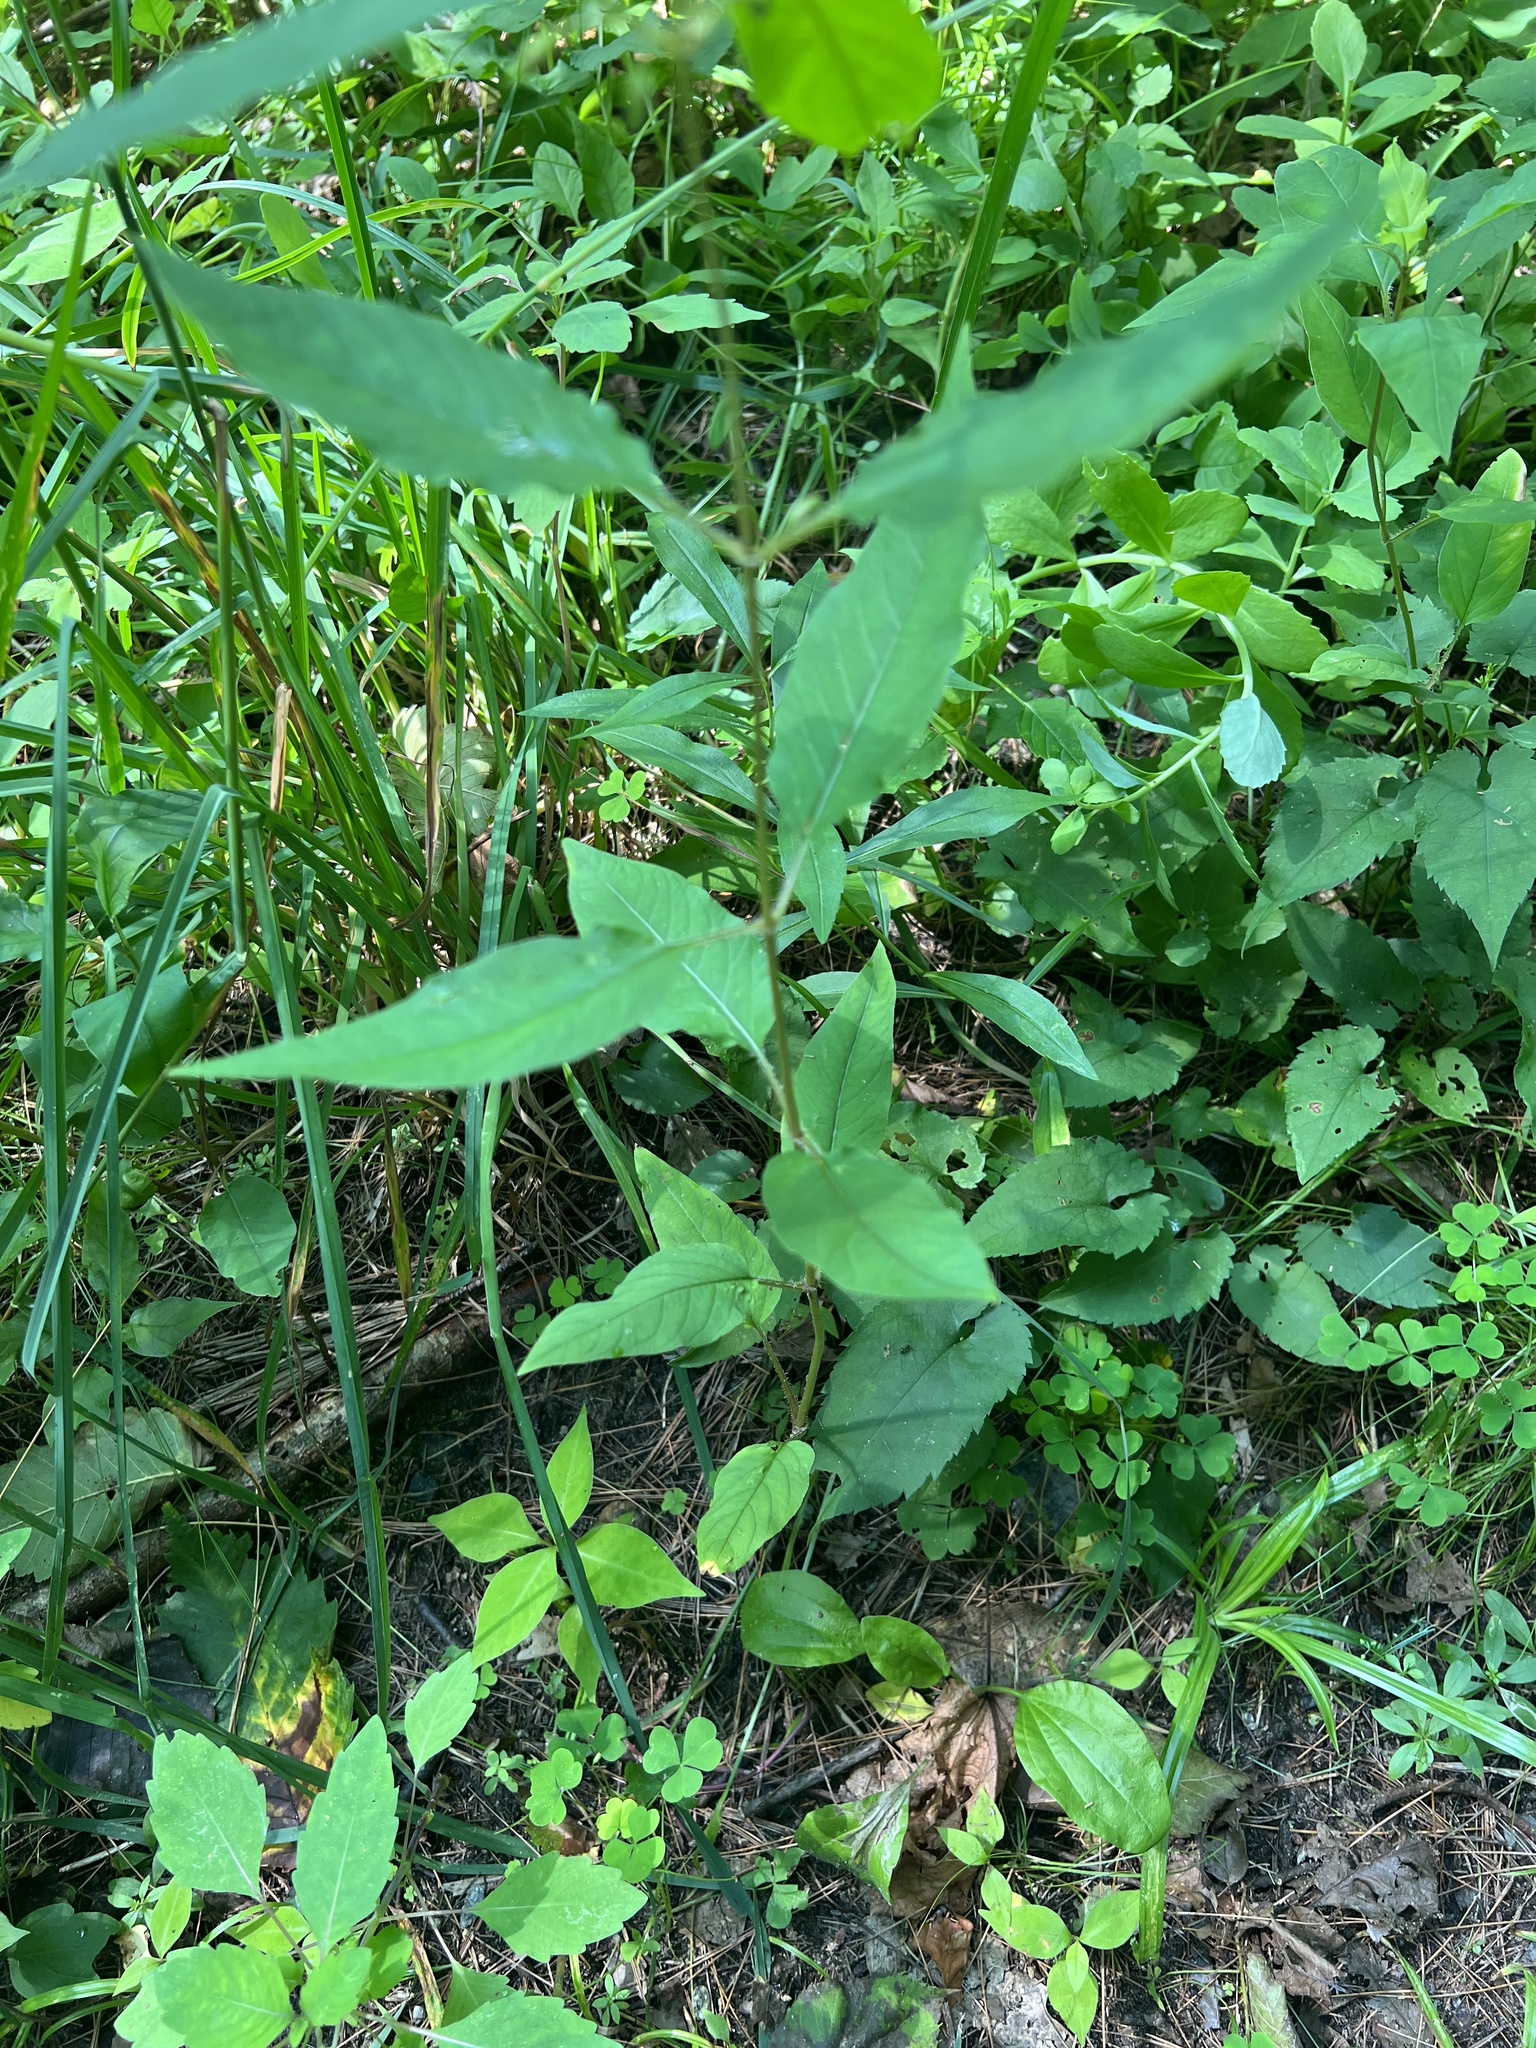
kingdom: Plantae
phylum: Tracheophyta
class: Magnoliopsida
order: Ericales
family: Primulaceae
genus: Lysimachia
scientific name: Lysimachia ciliata
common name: Fringed loosestrife
